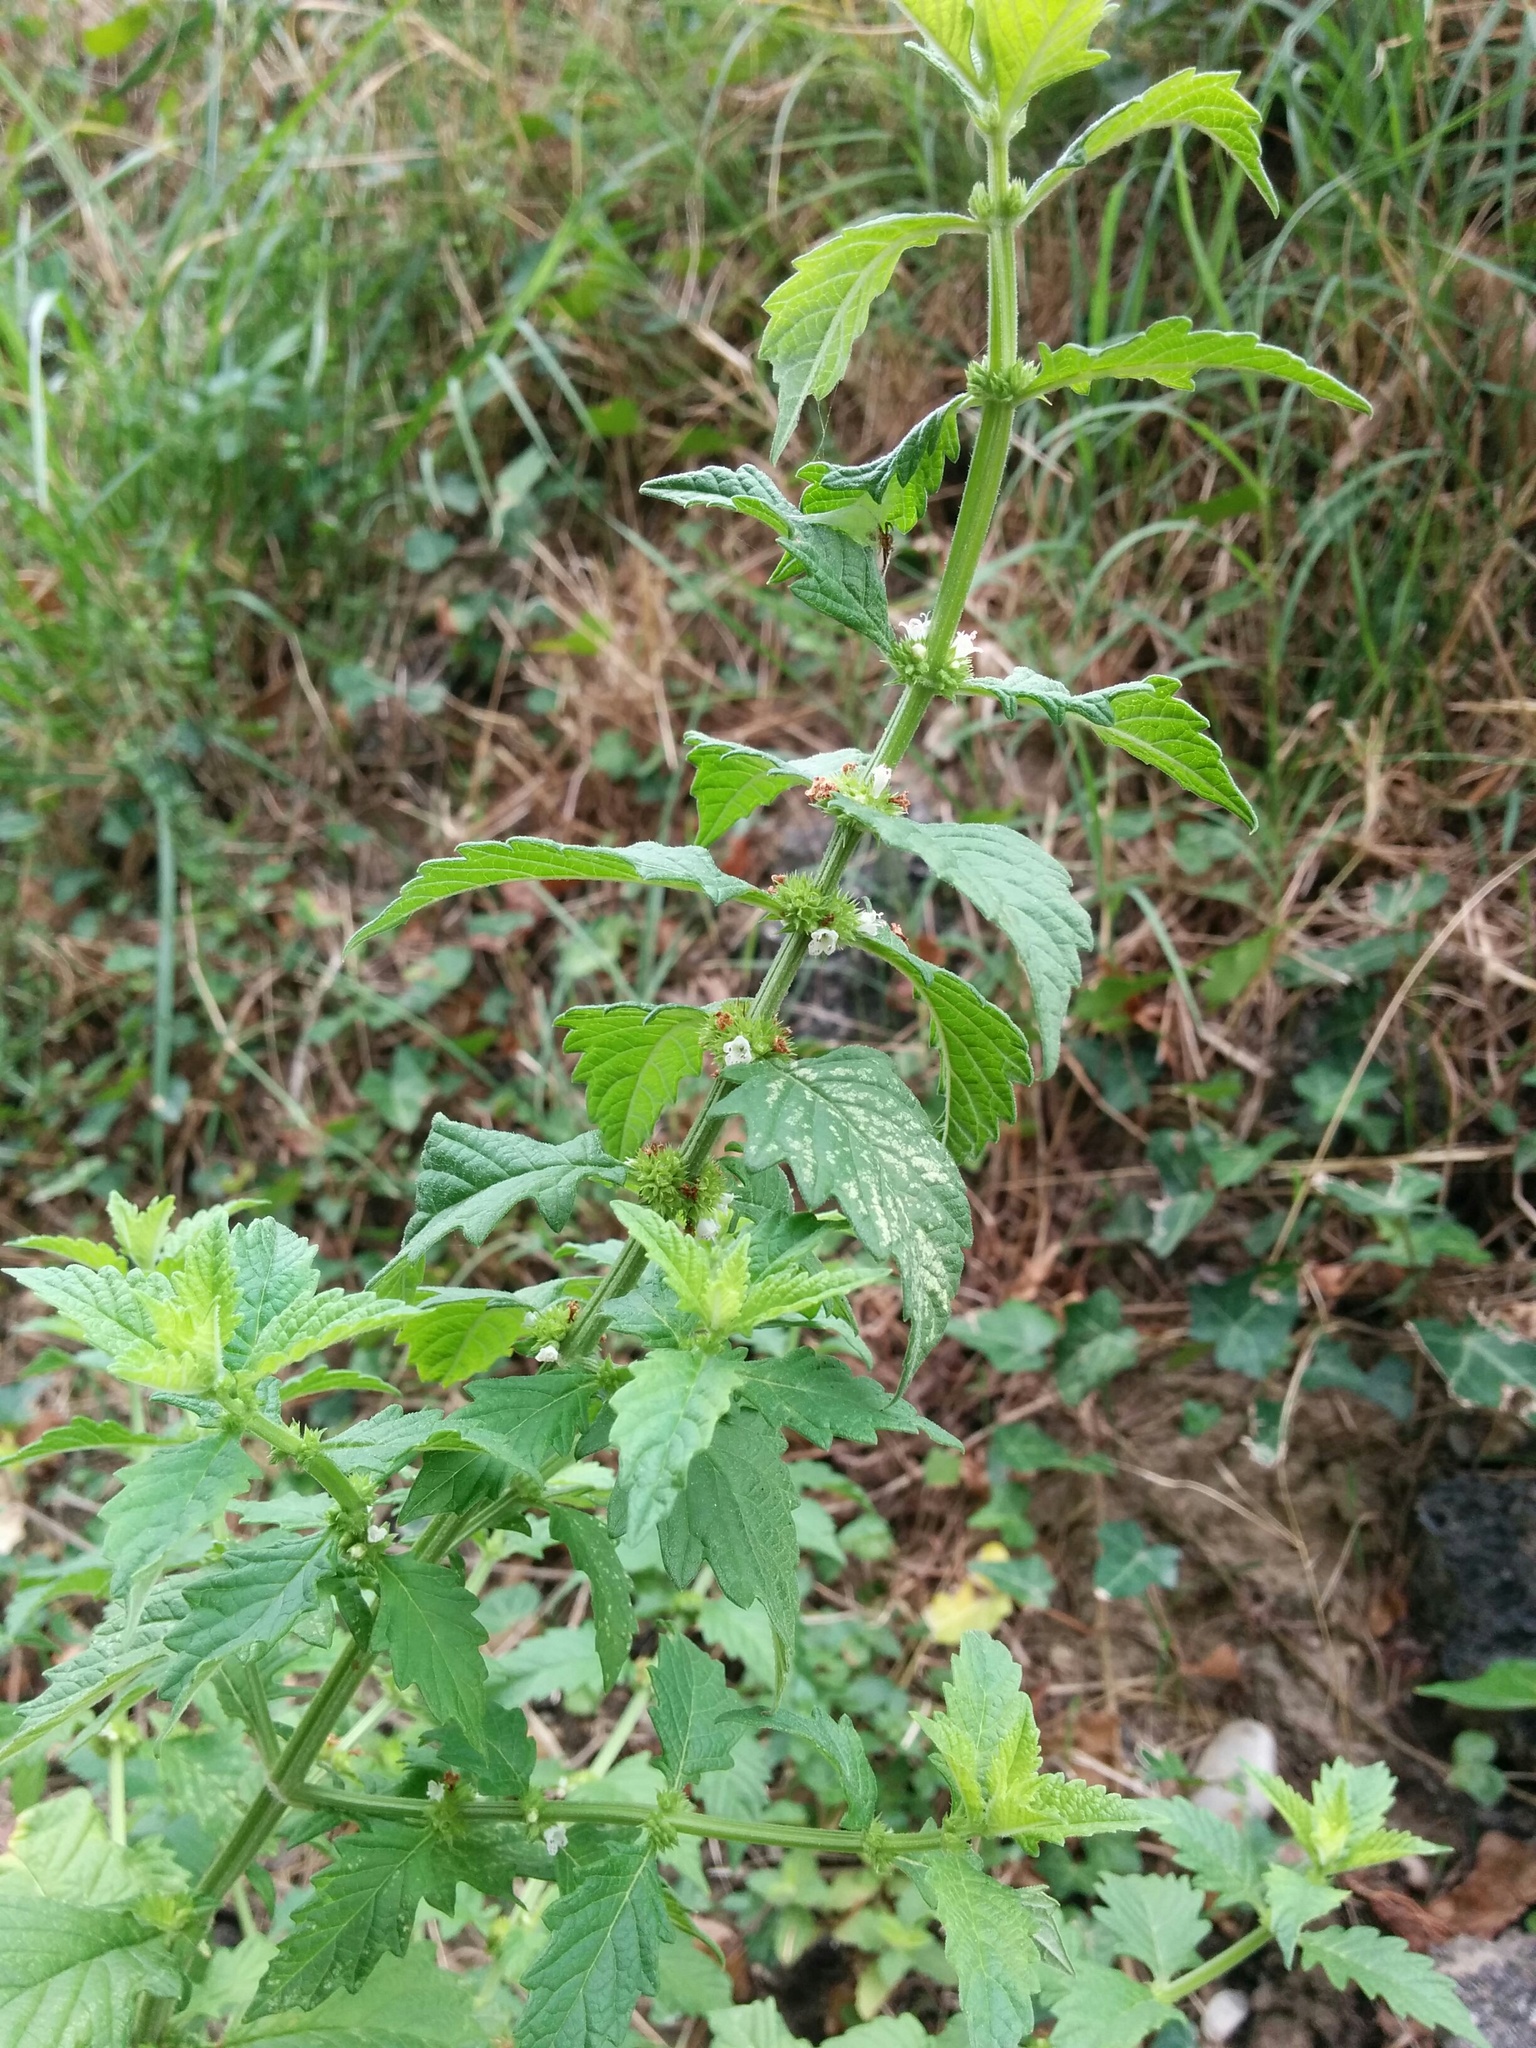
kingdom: Plantae
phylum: Tracheophyta
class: Magnoliopsida
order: Lamiales
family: Lamiaceae
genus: Lycopus
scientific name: Lycopus europaeus
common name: European bugleweed
